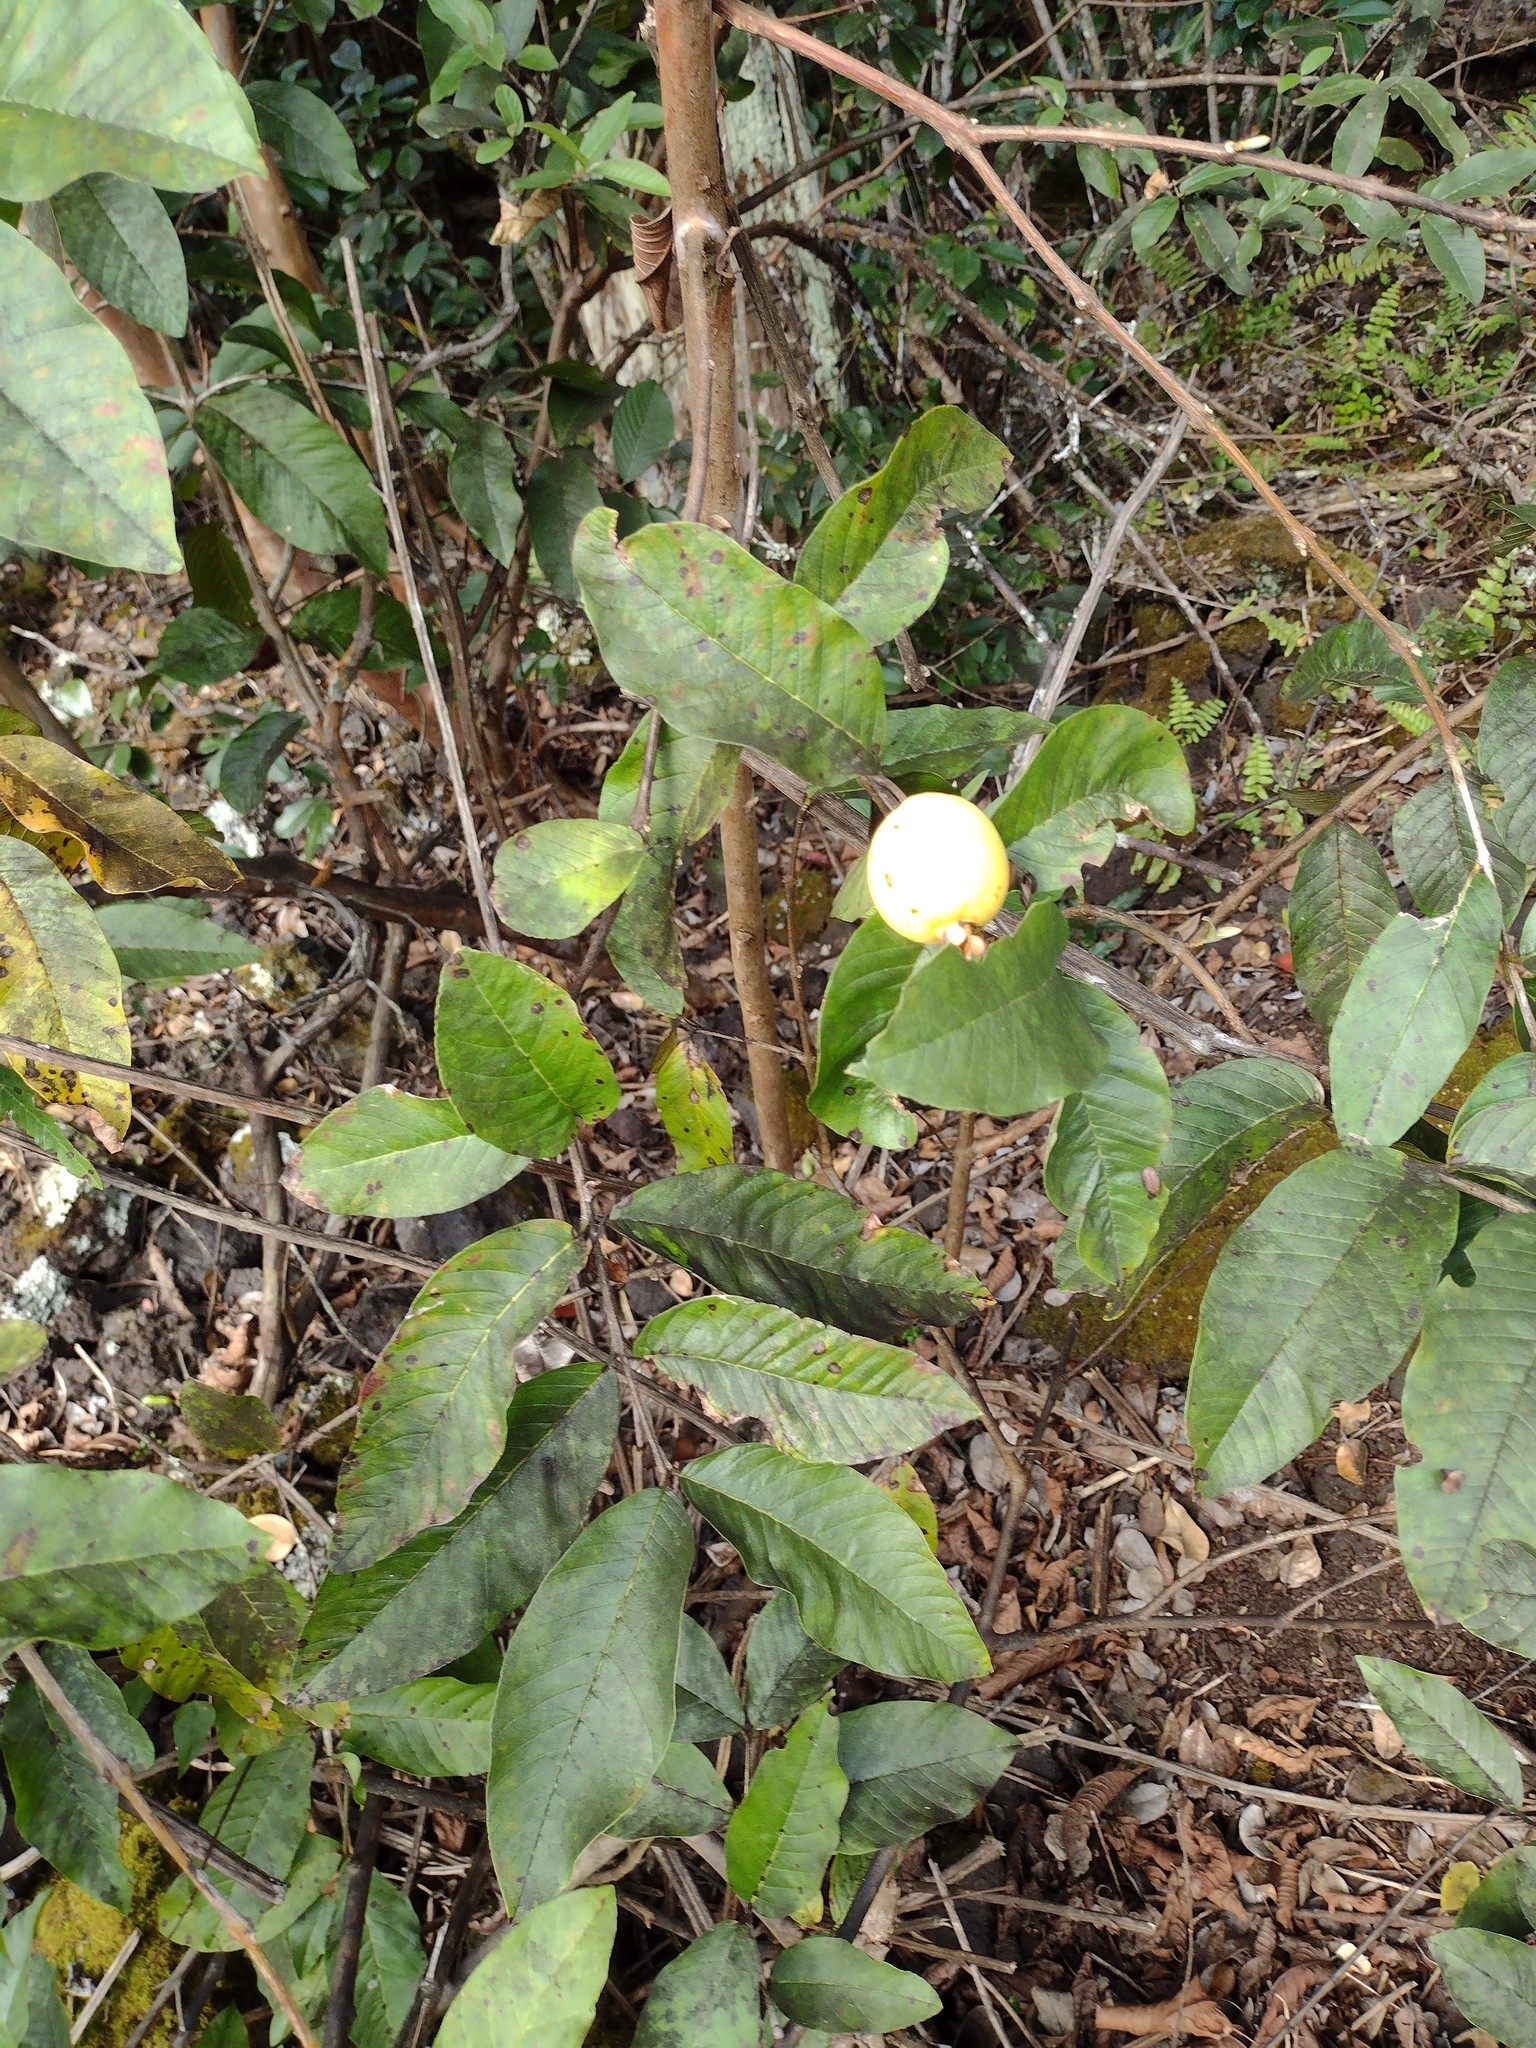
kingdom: Plantae
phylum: Tracheophyta
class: Magnoliopsida
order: Myrtales
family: Myrtaceae
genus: Psidium
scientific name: Psidium guajava
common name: Guava
